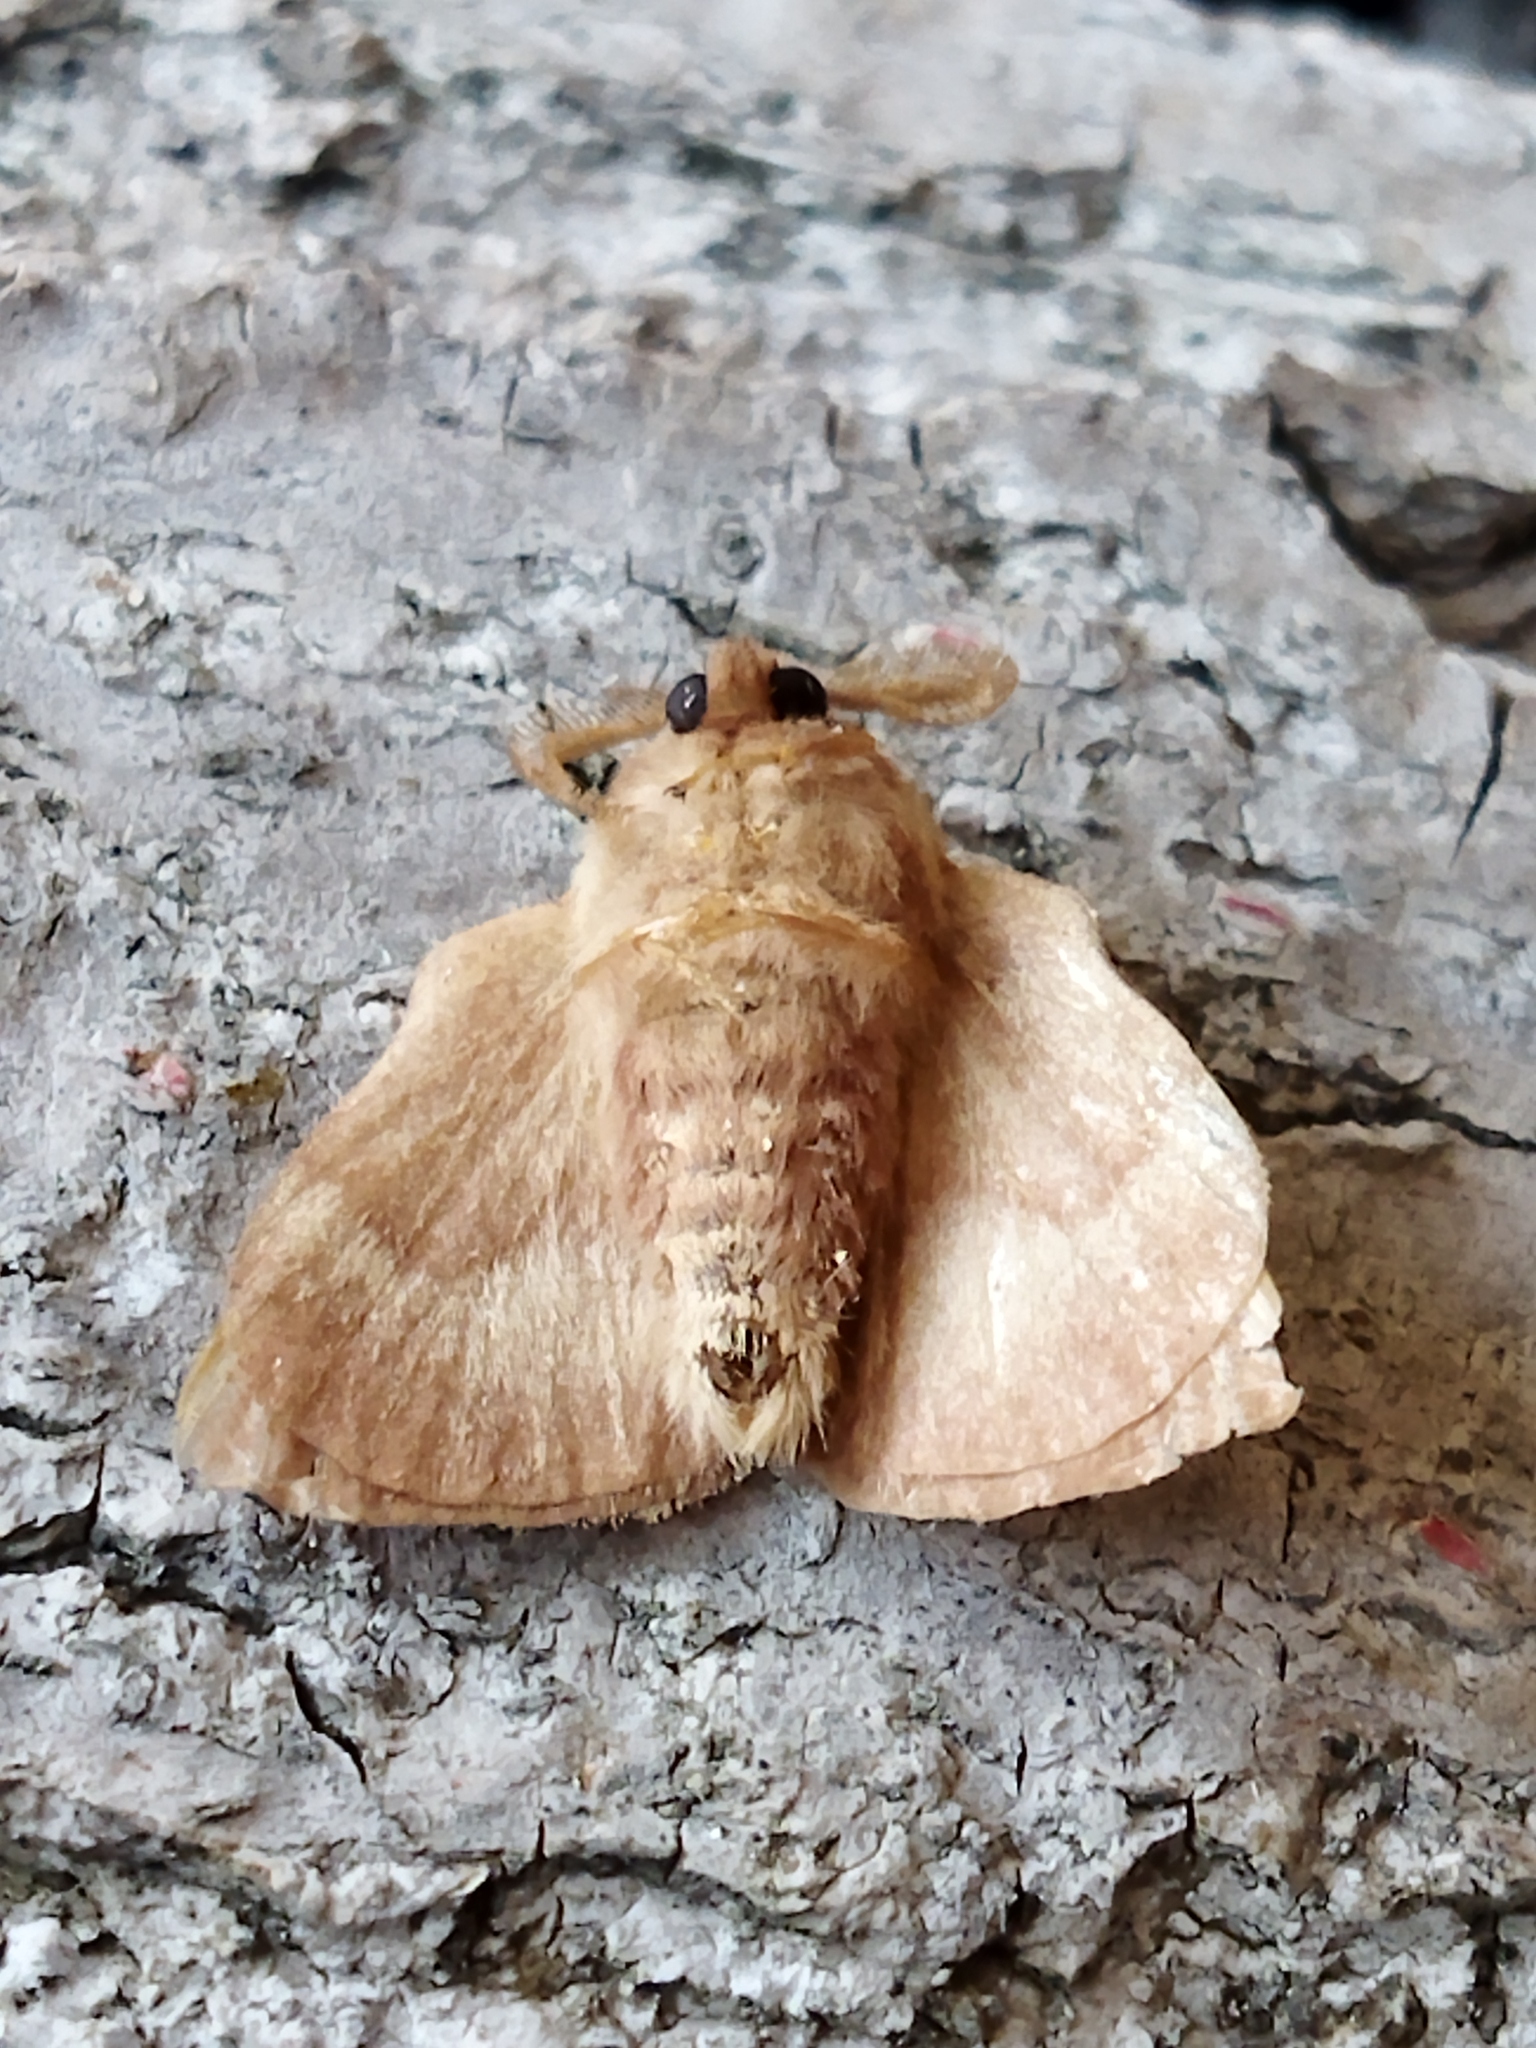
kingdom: Animalia
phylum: Arthropoda
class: Insecta
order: Lepidoptera
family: Lasiocampidae
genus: Malacosoma
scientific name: Malacosoma neustria
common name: The lackey
